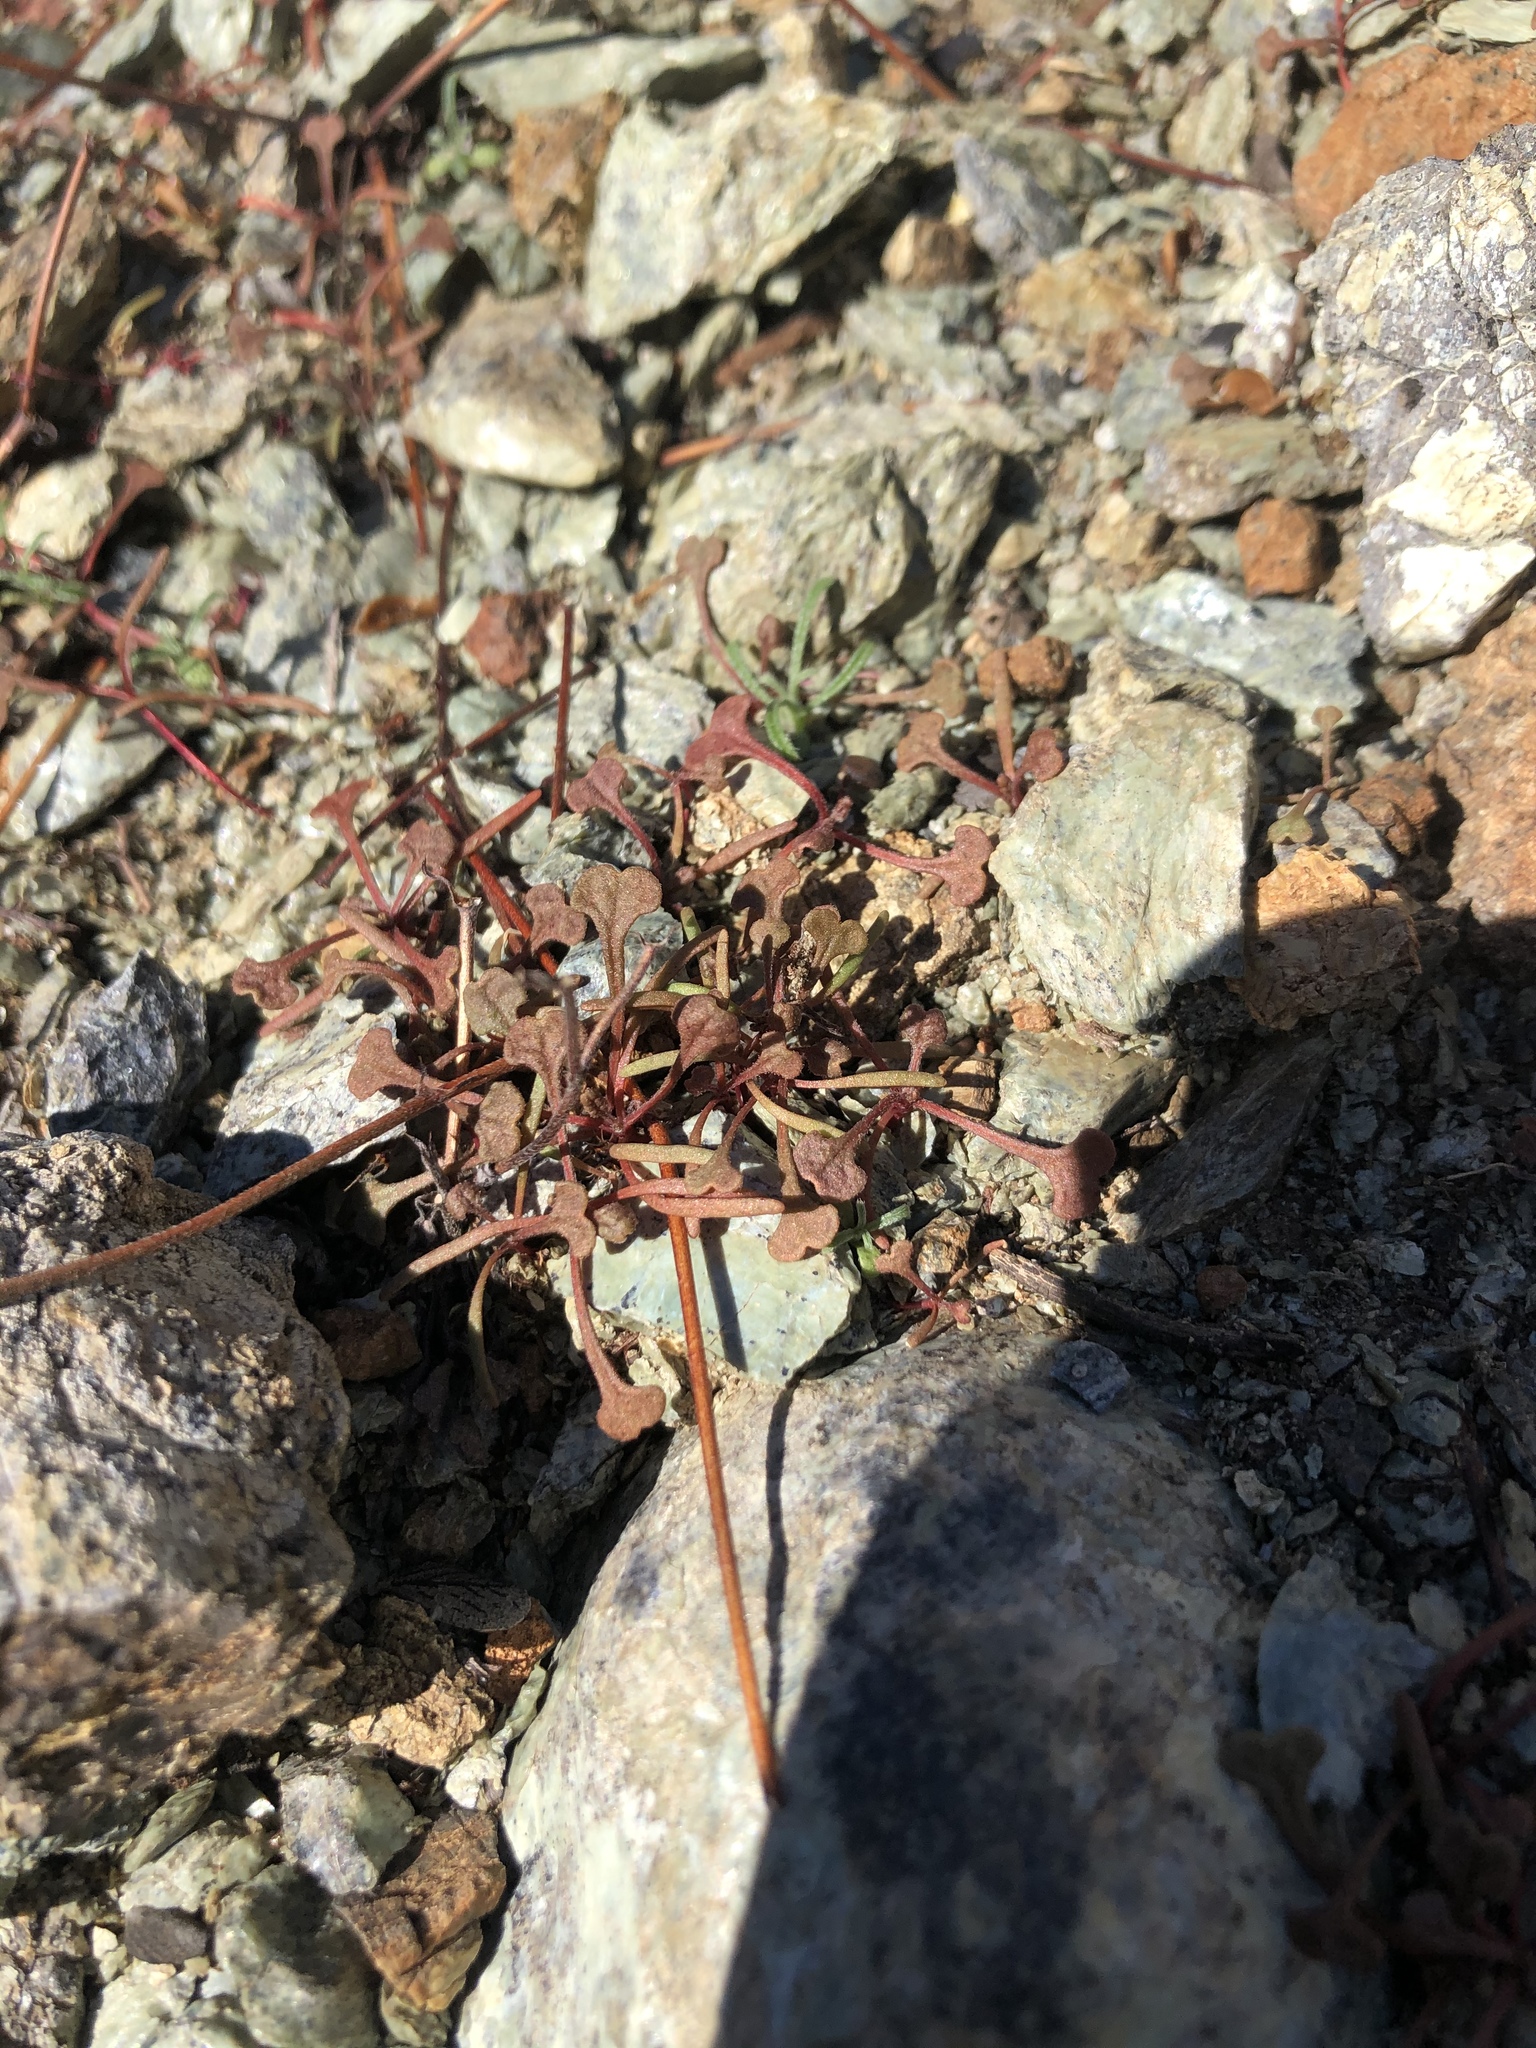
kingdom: Plantae
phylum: Tracheophyta
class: Magnoliopsida
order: Caryophyllales
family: Polygonaceae
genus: Chorizanthe
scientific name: Chorizanthe breweri
